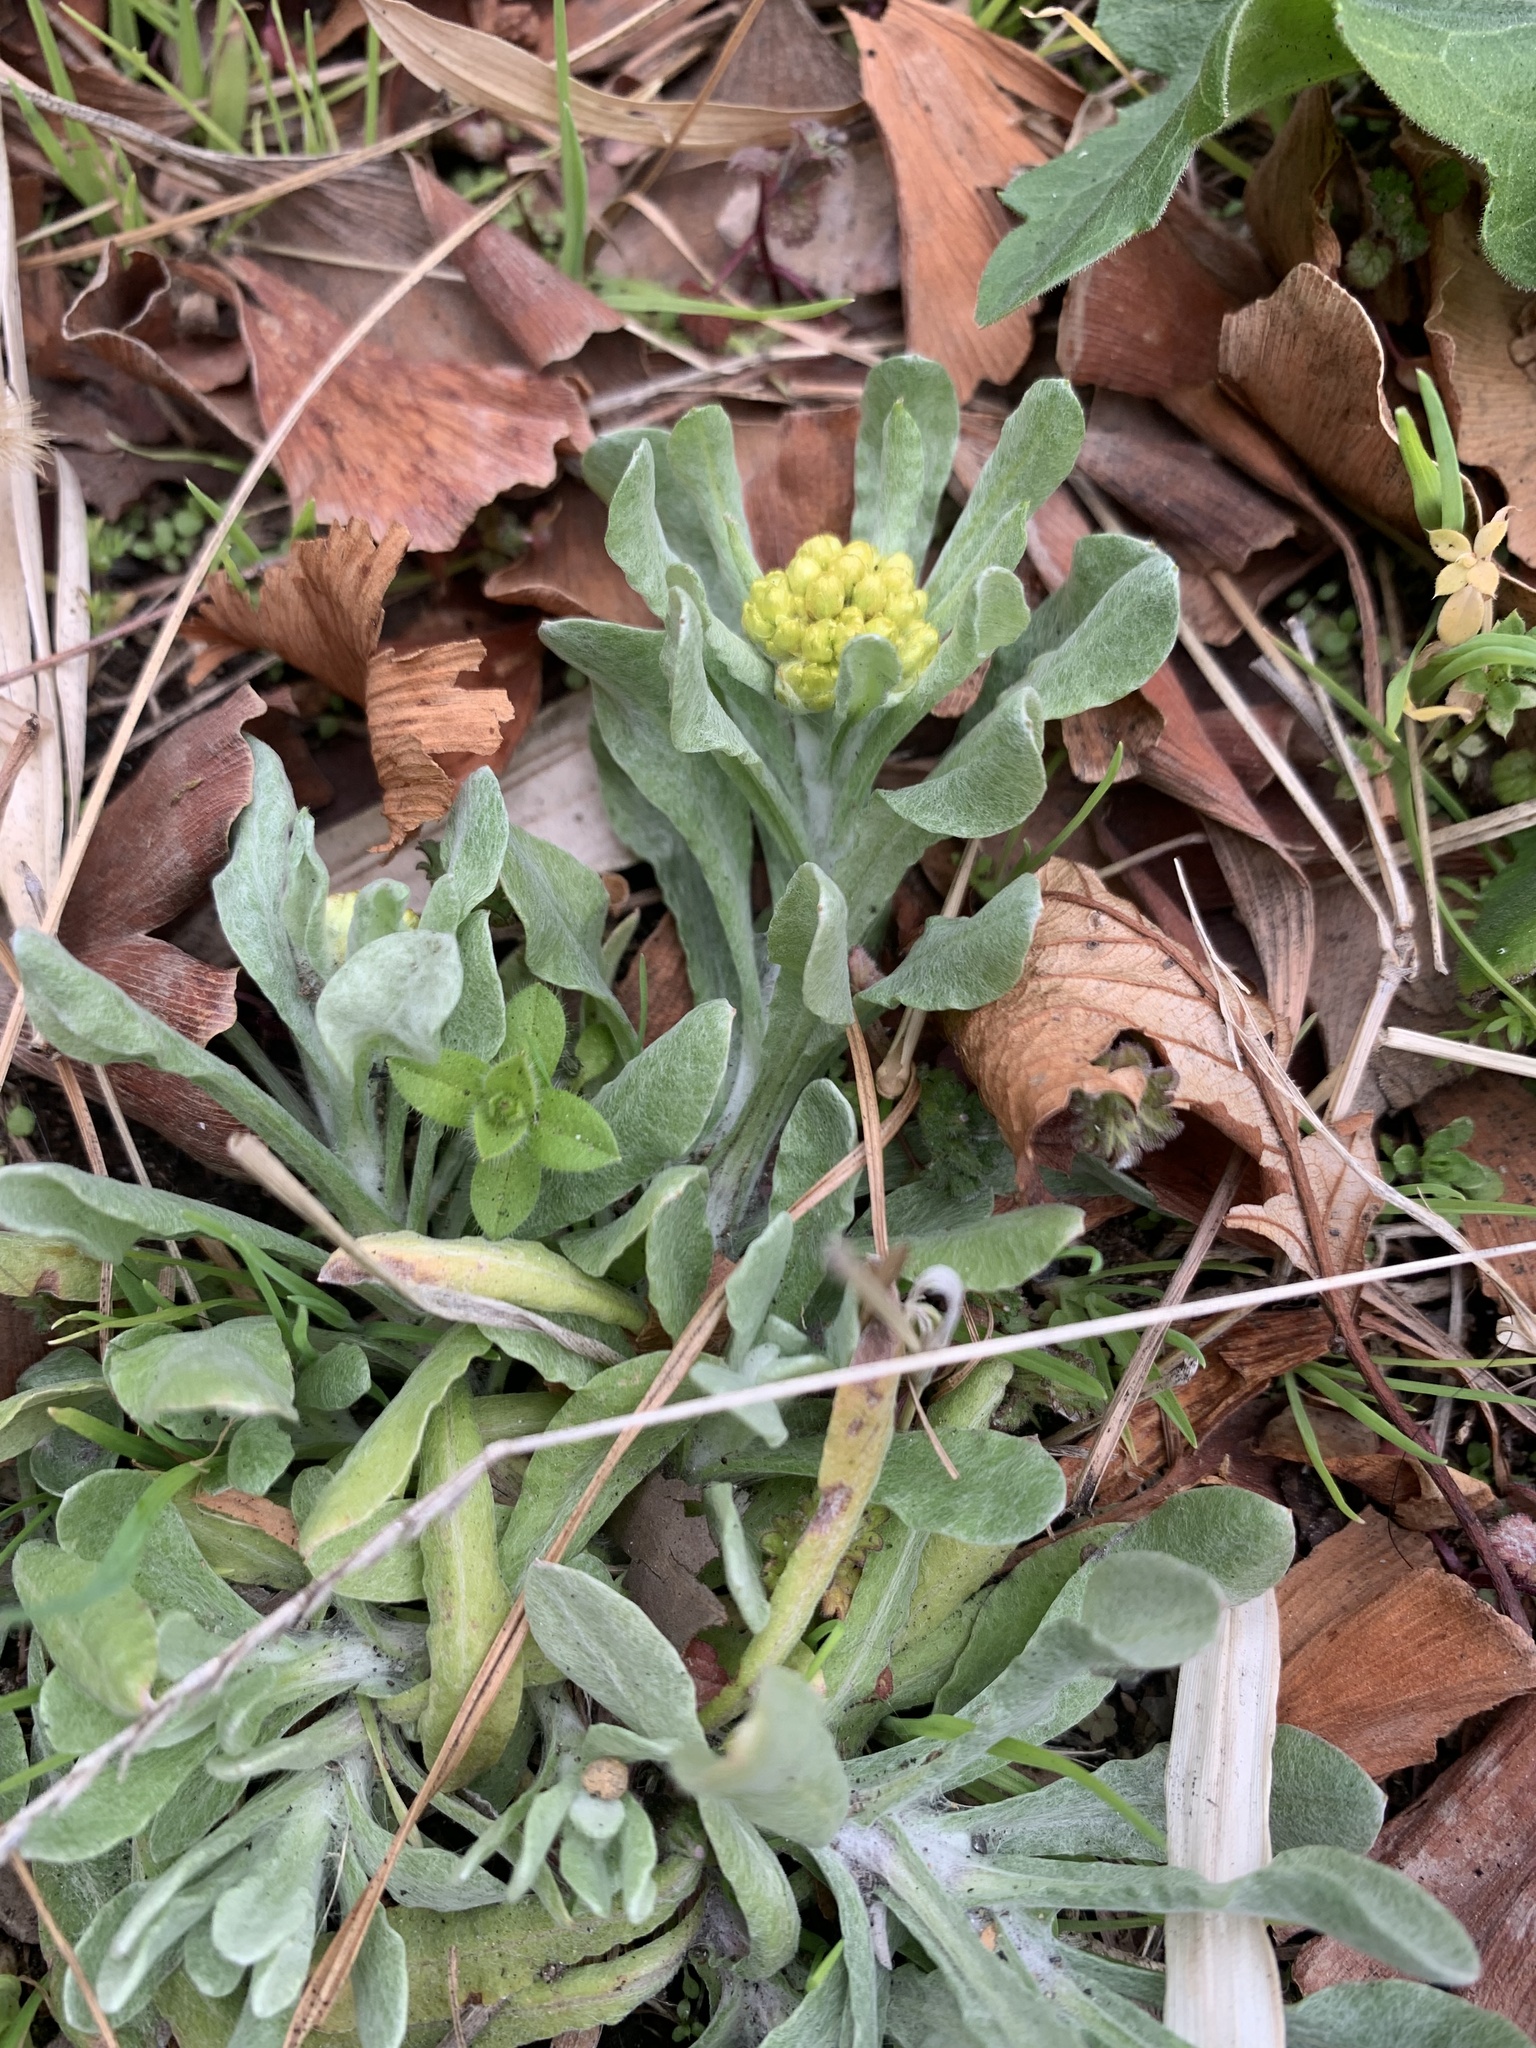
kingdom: Plantae
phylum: Tracheophyta
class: Magnoliopsida
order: Asterales
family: Asteraceae
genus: Pseudognaphalium
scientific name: Pseudognaphalium affine
